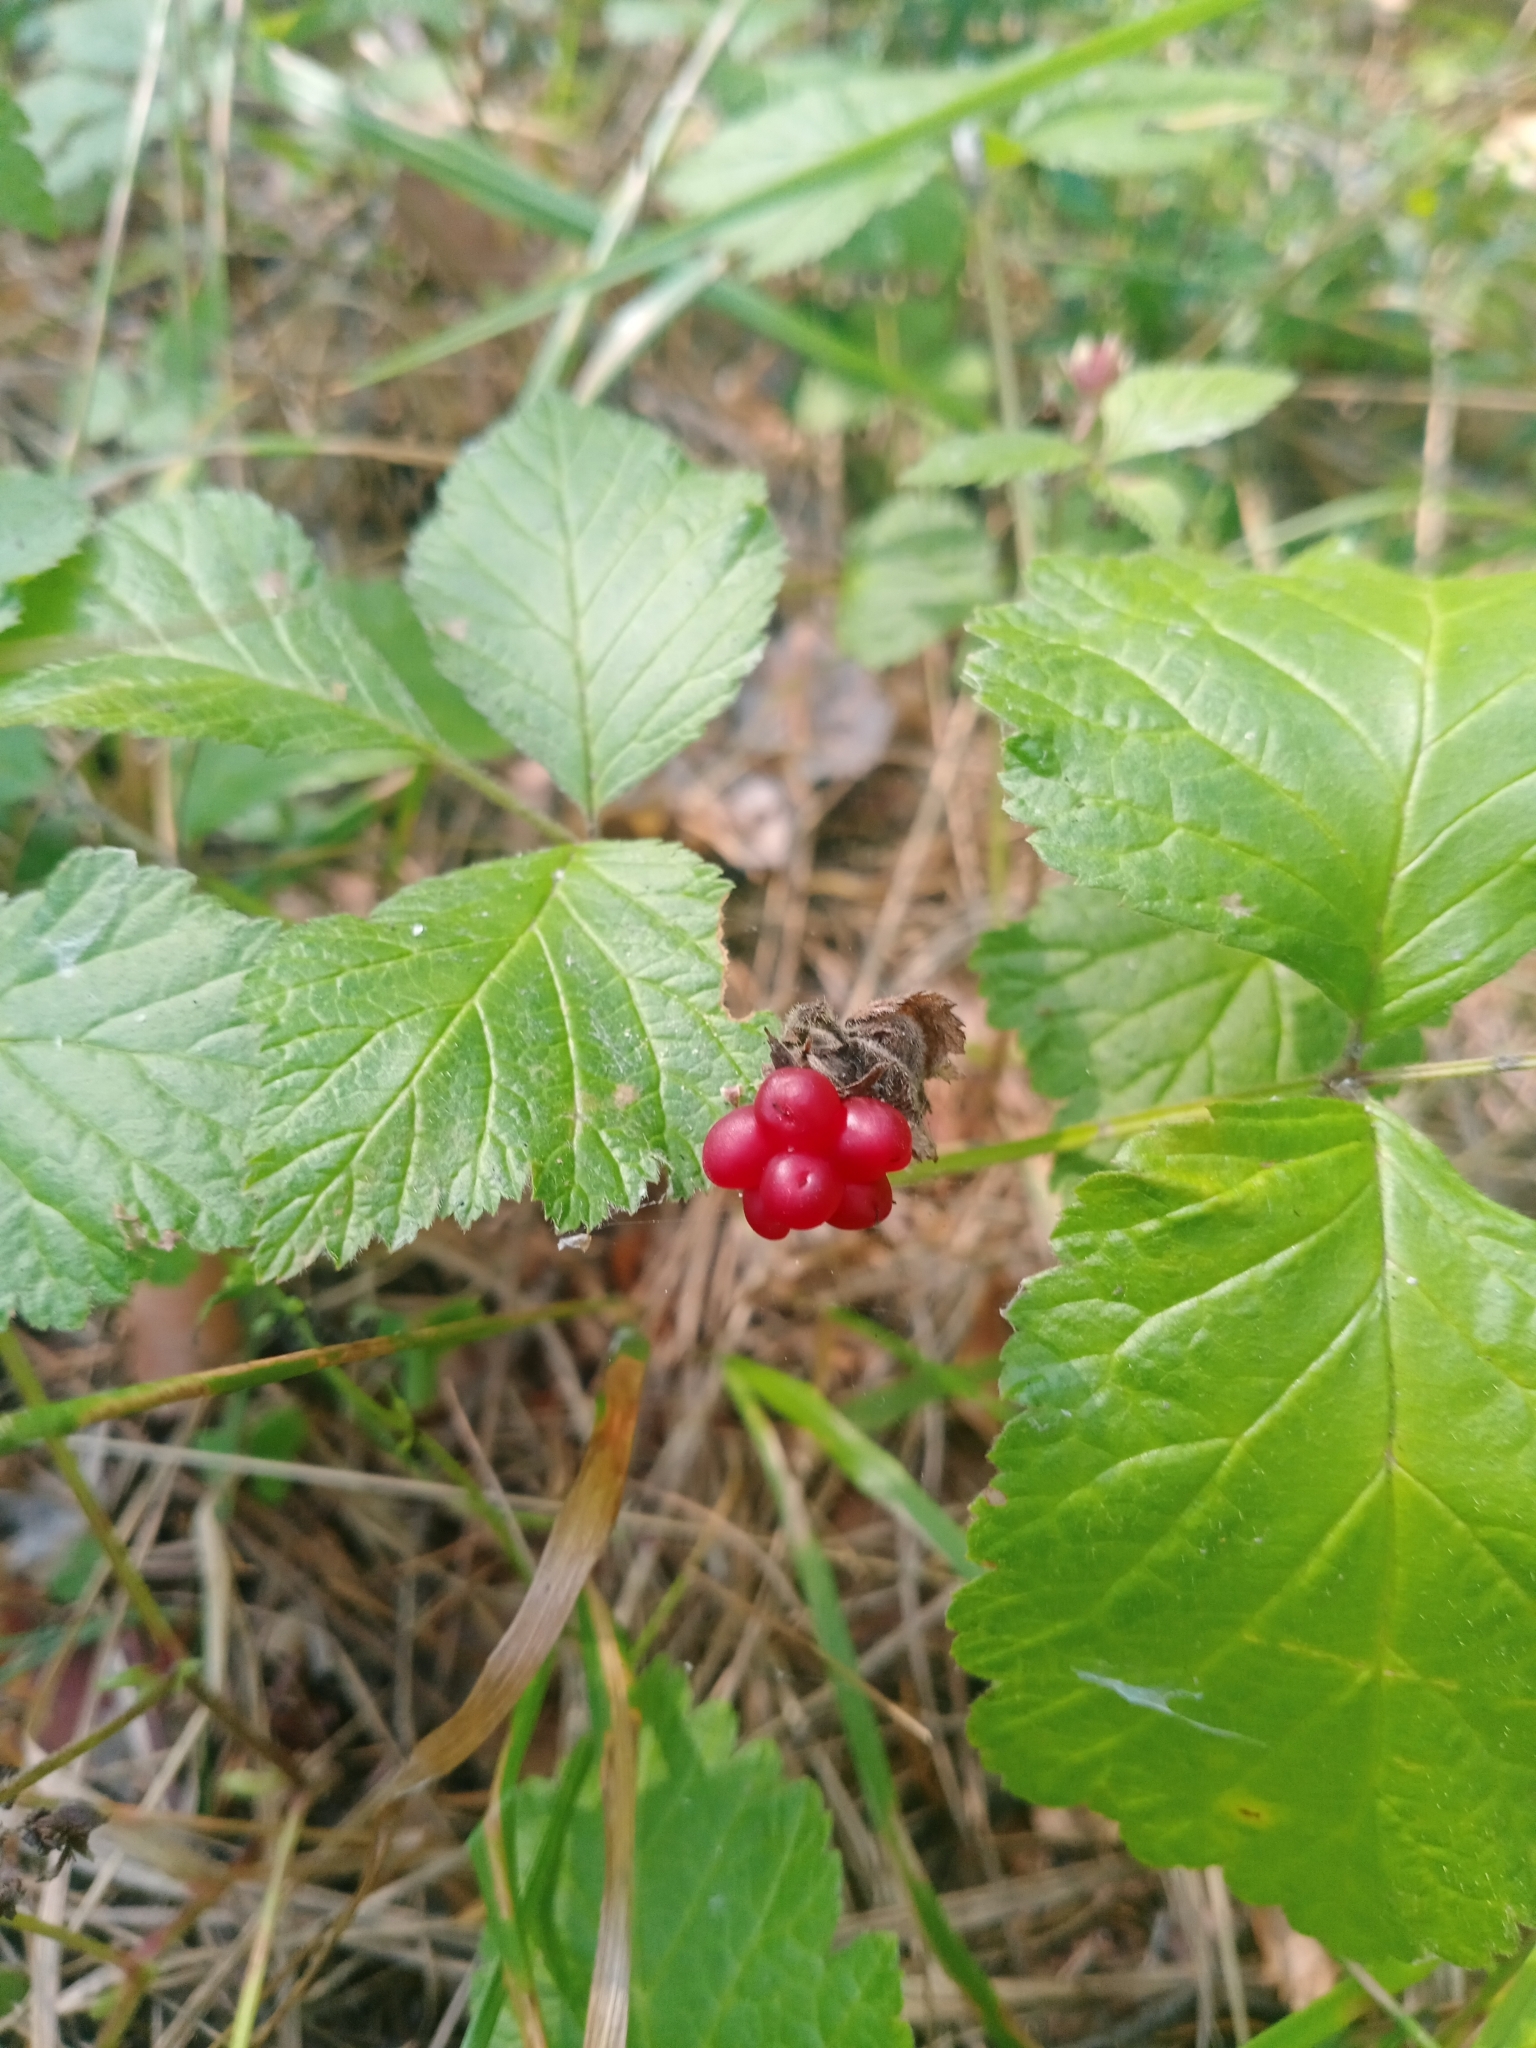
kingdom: Plantae
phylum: Tracheophyta
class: Magnoliopsida
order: Rosales
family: Rosaceae
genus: Rubus
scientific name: Rubus saxatilis
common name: Stone bramble
